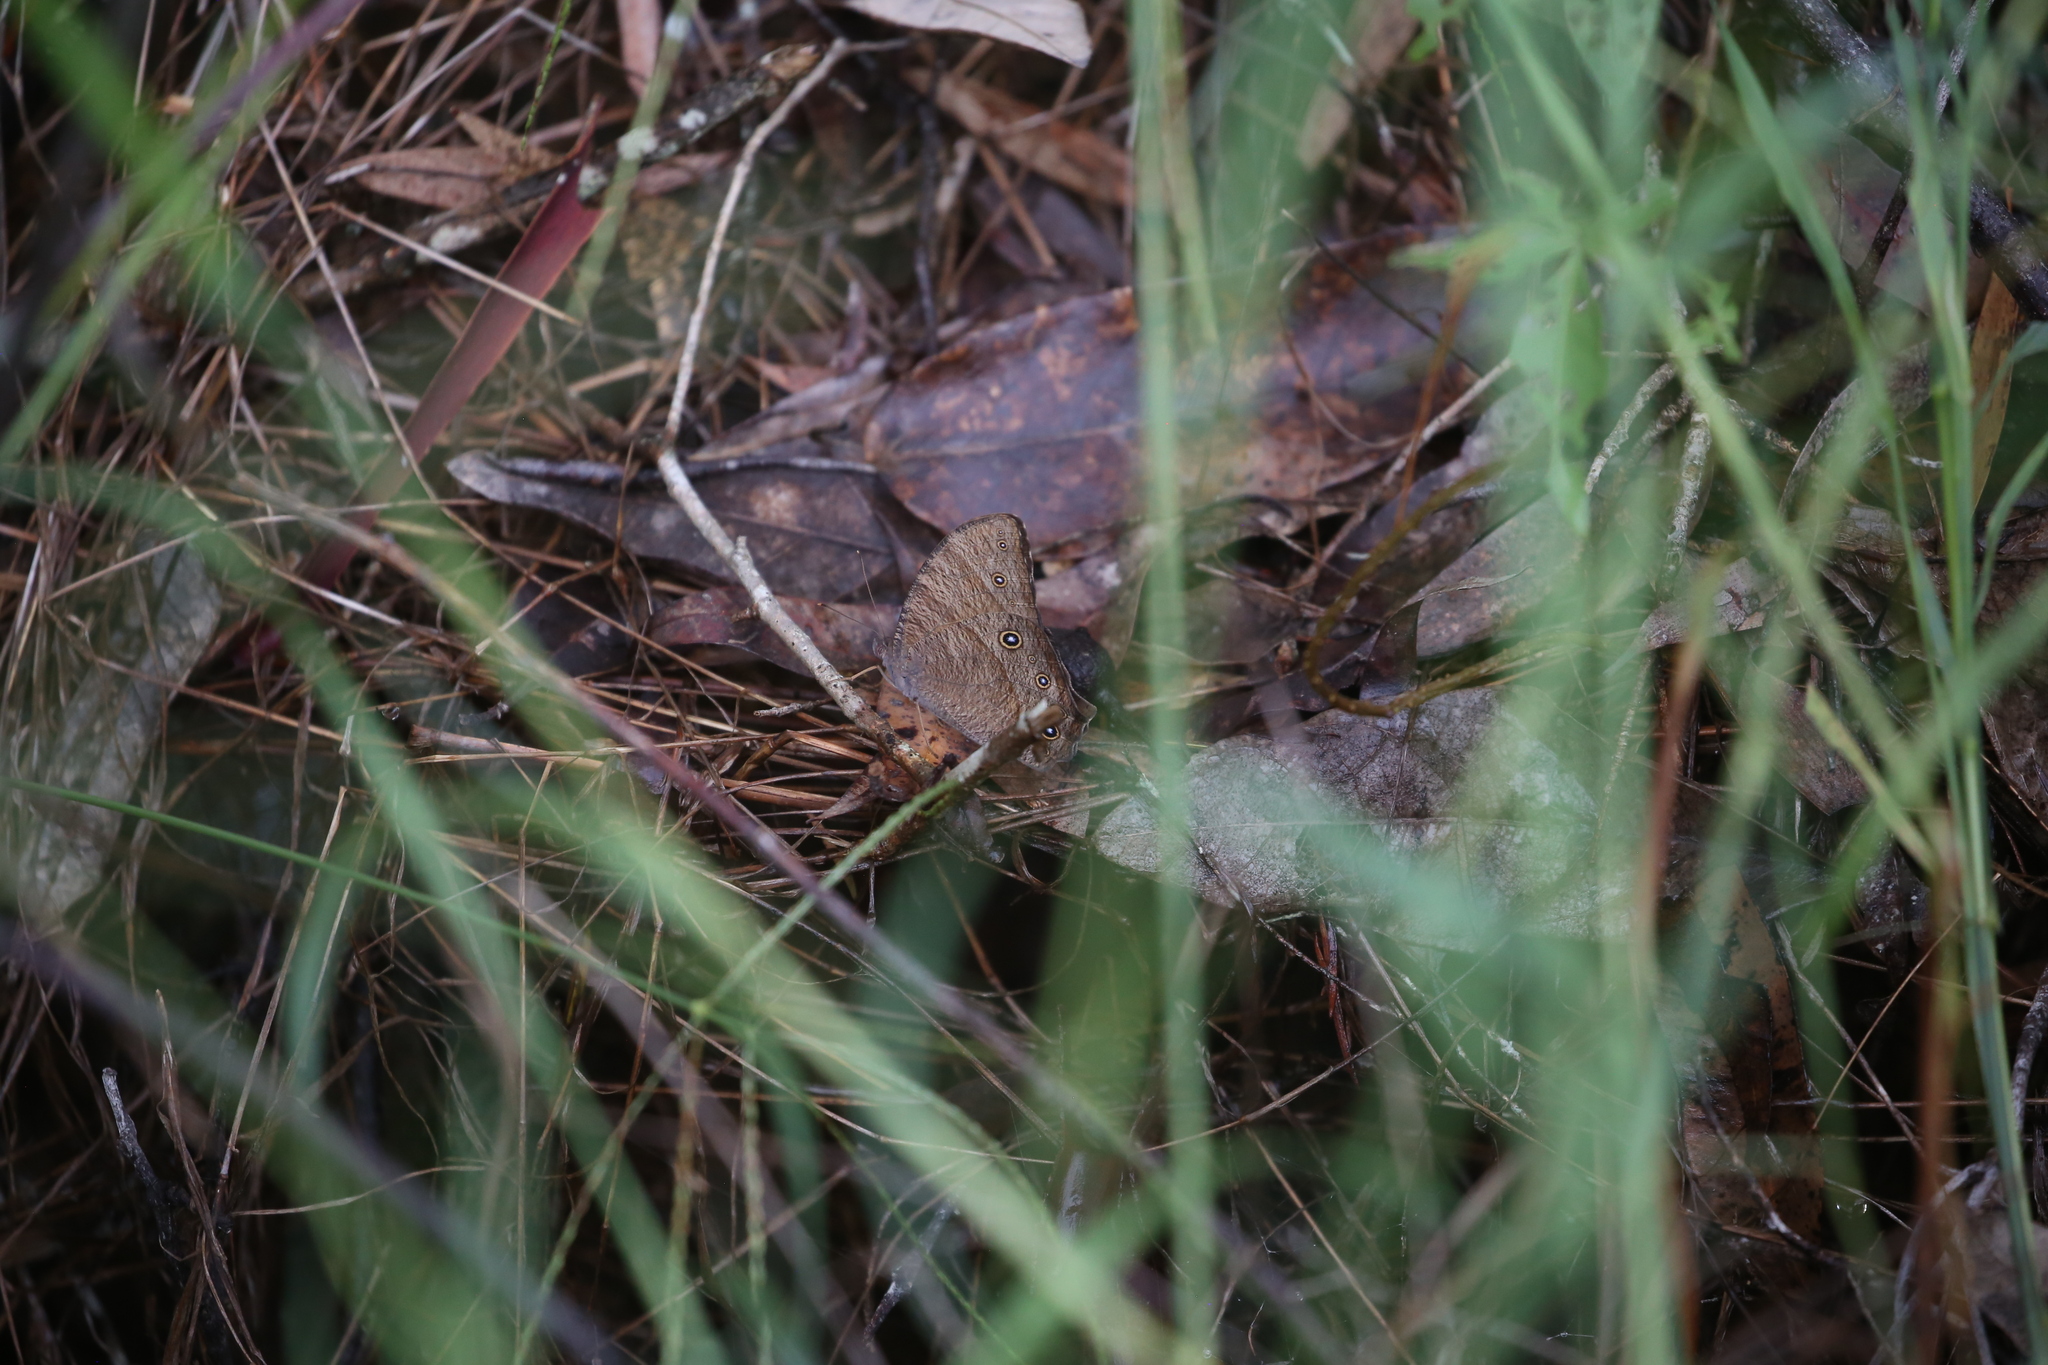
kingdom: Animalia
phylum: Arthropoda
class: Insecta
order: Lepidoptera
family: Nymphalidae
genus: Melanitis
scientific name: Melanitis leda
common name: Twilight brown
